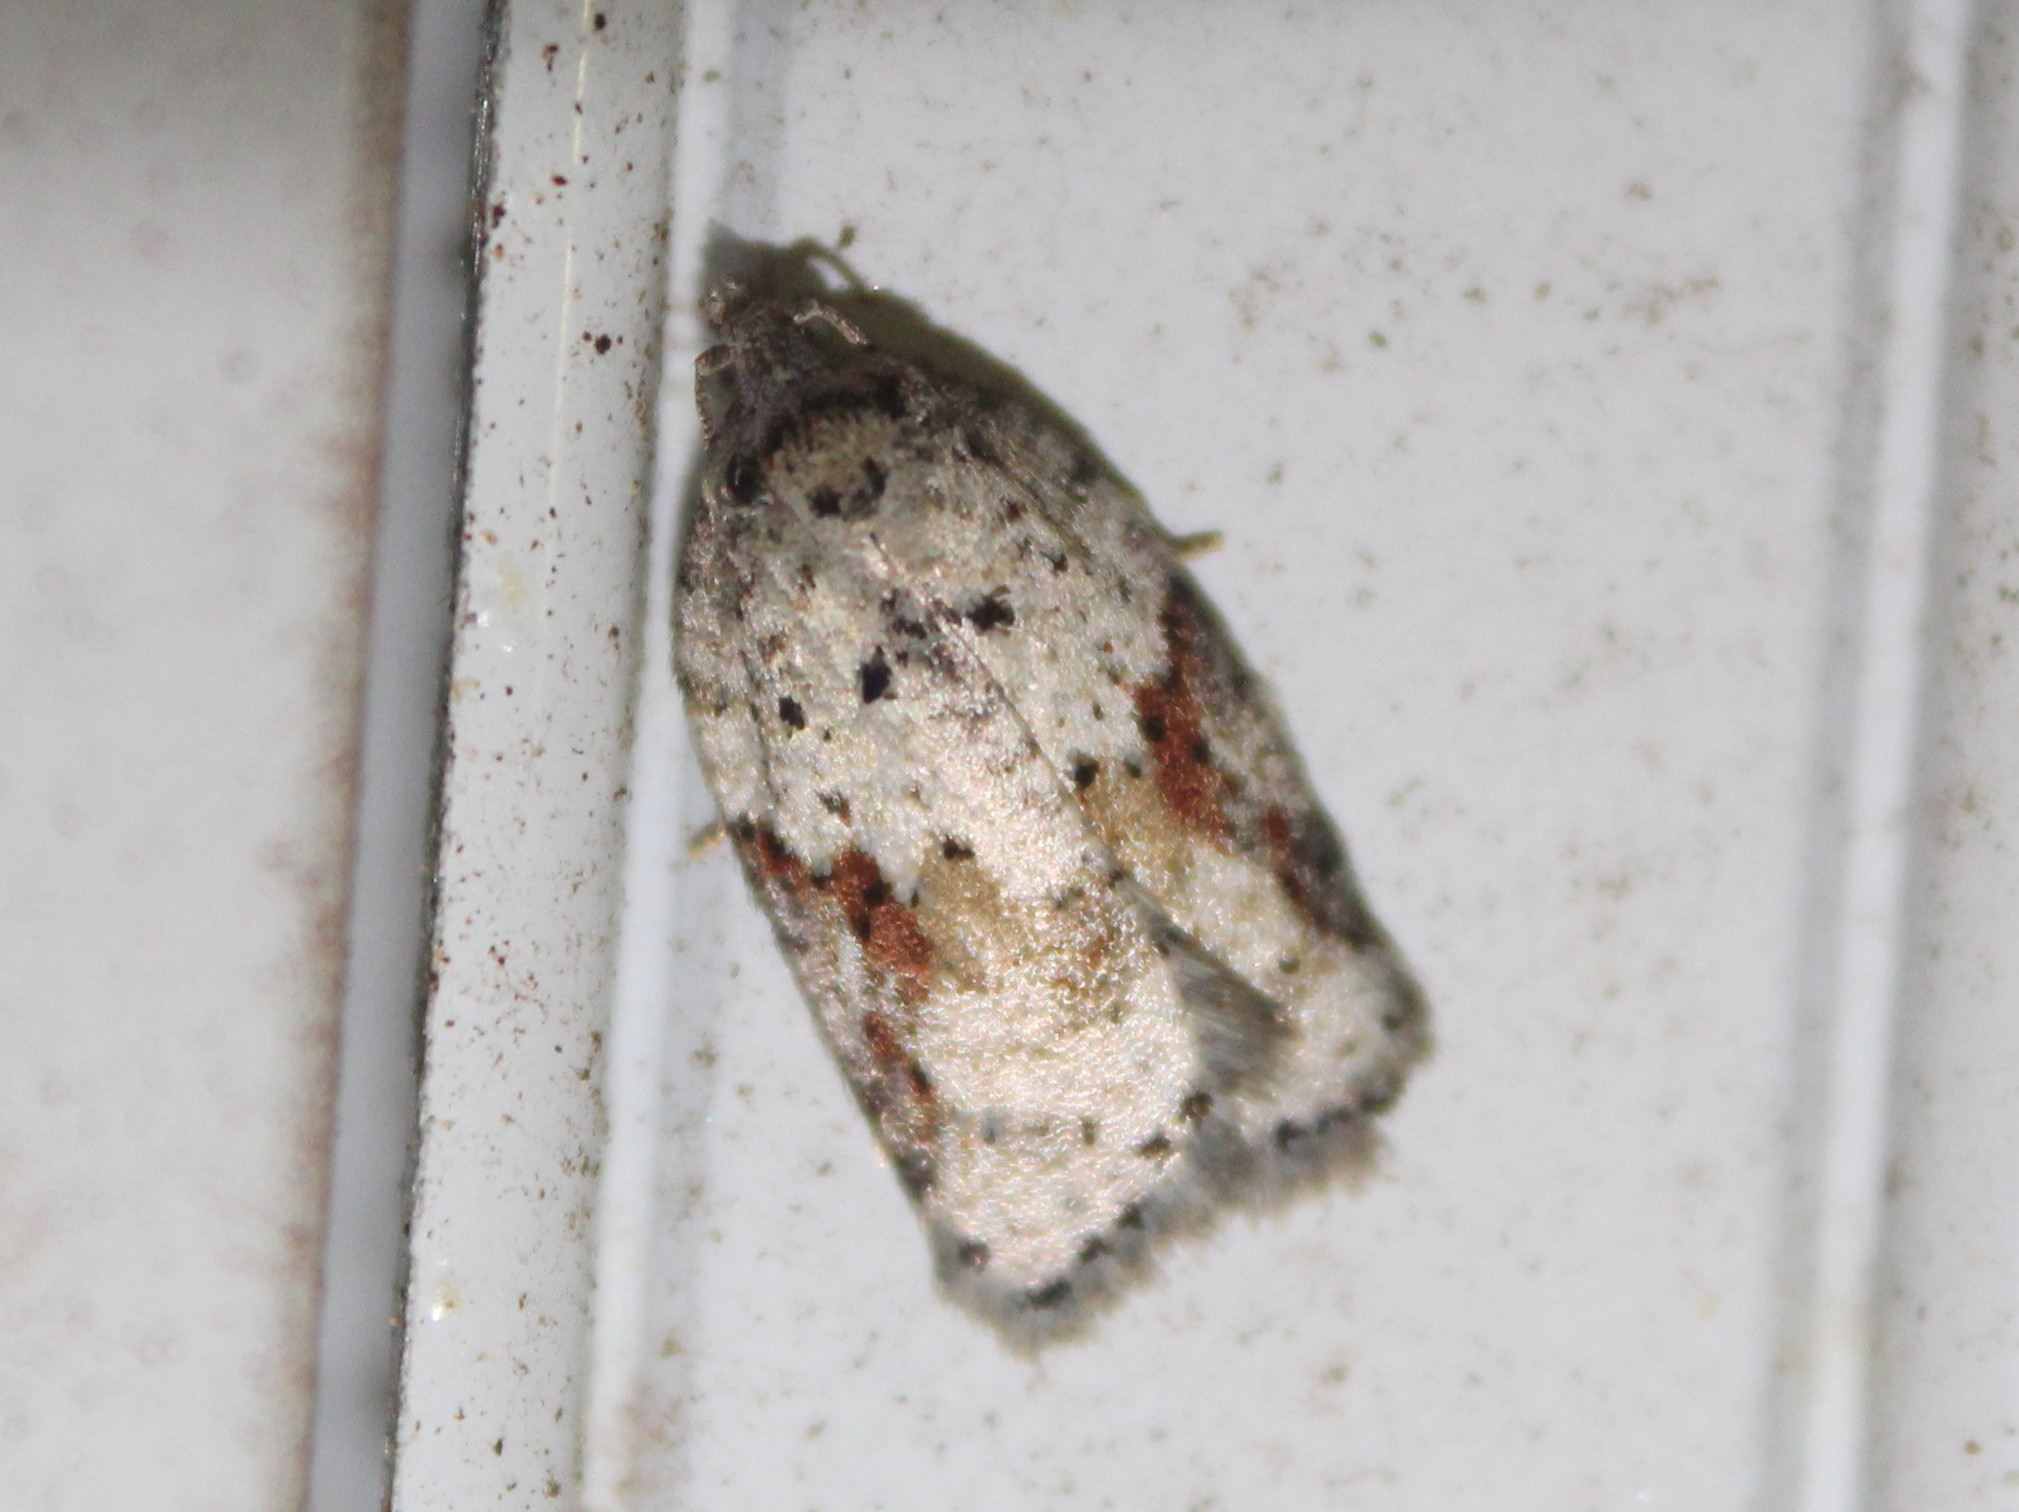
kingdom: Animalia
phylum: Arthropoda
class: Insecta
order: Lepidoptera
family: Tortricidae
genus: Acleris
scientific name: Acleris cornana
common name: Dogwood leafroller
